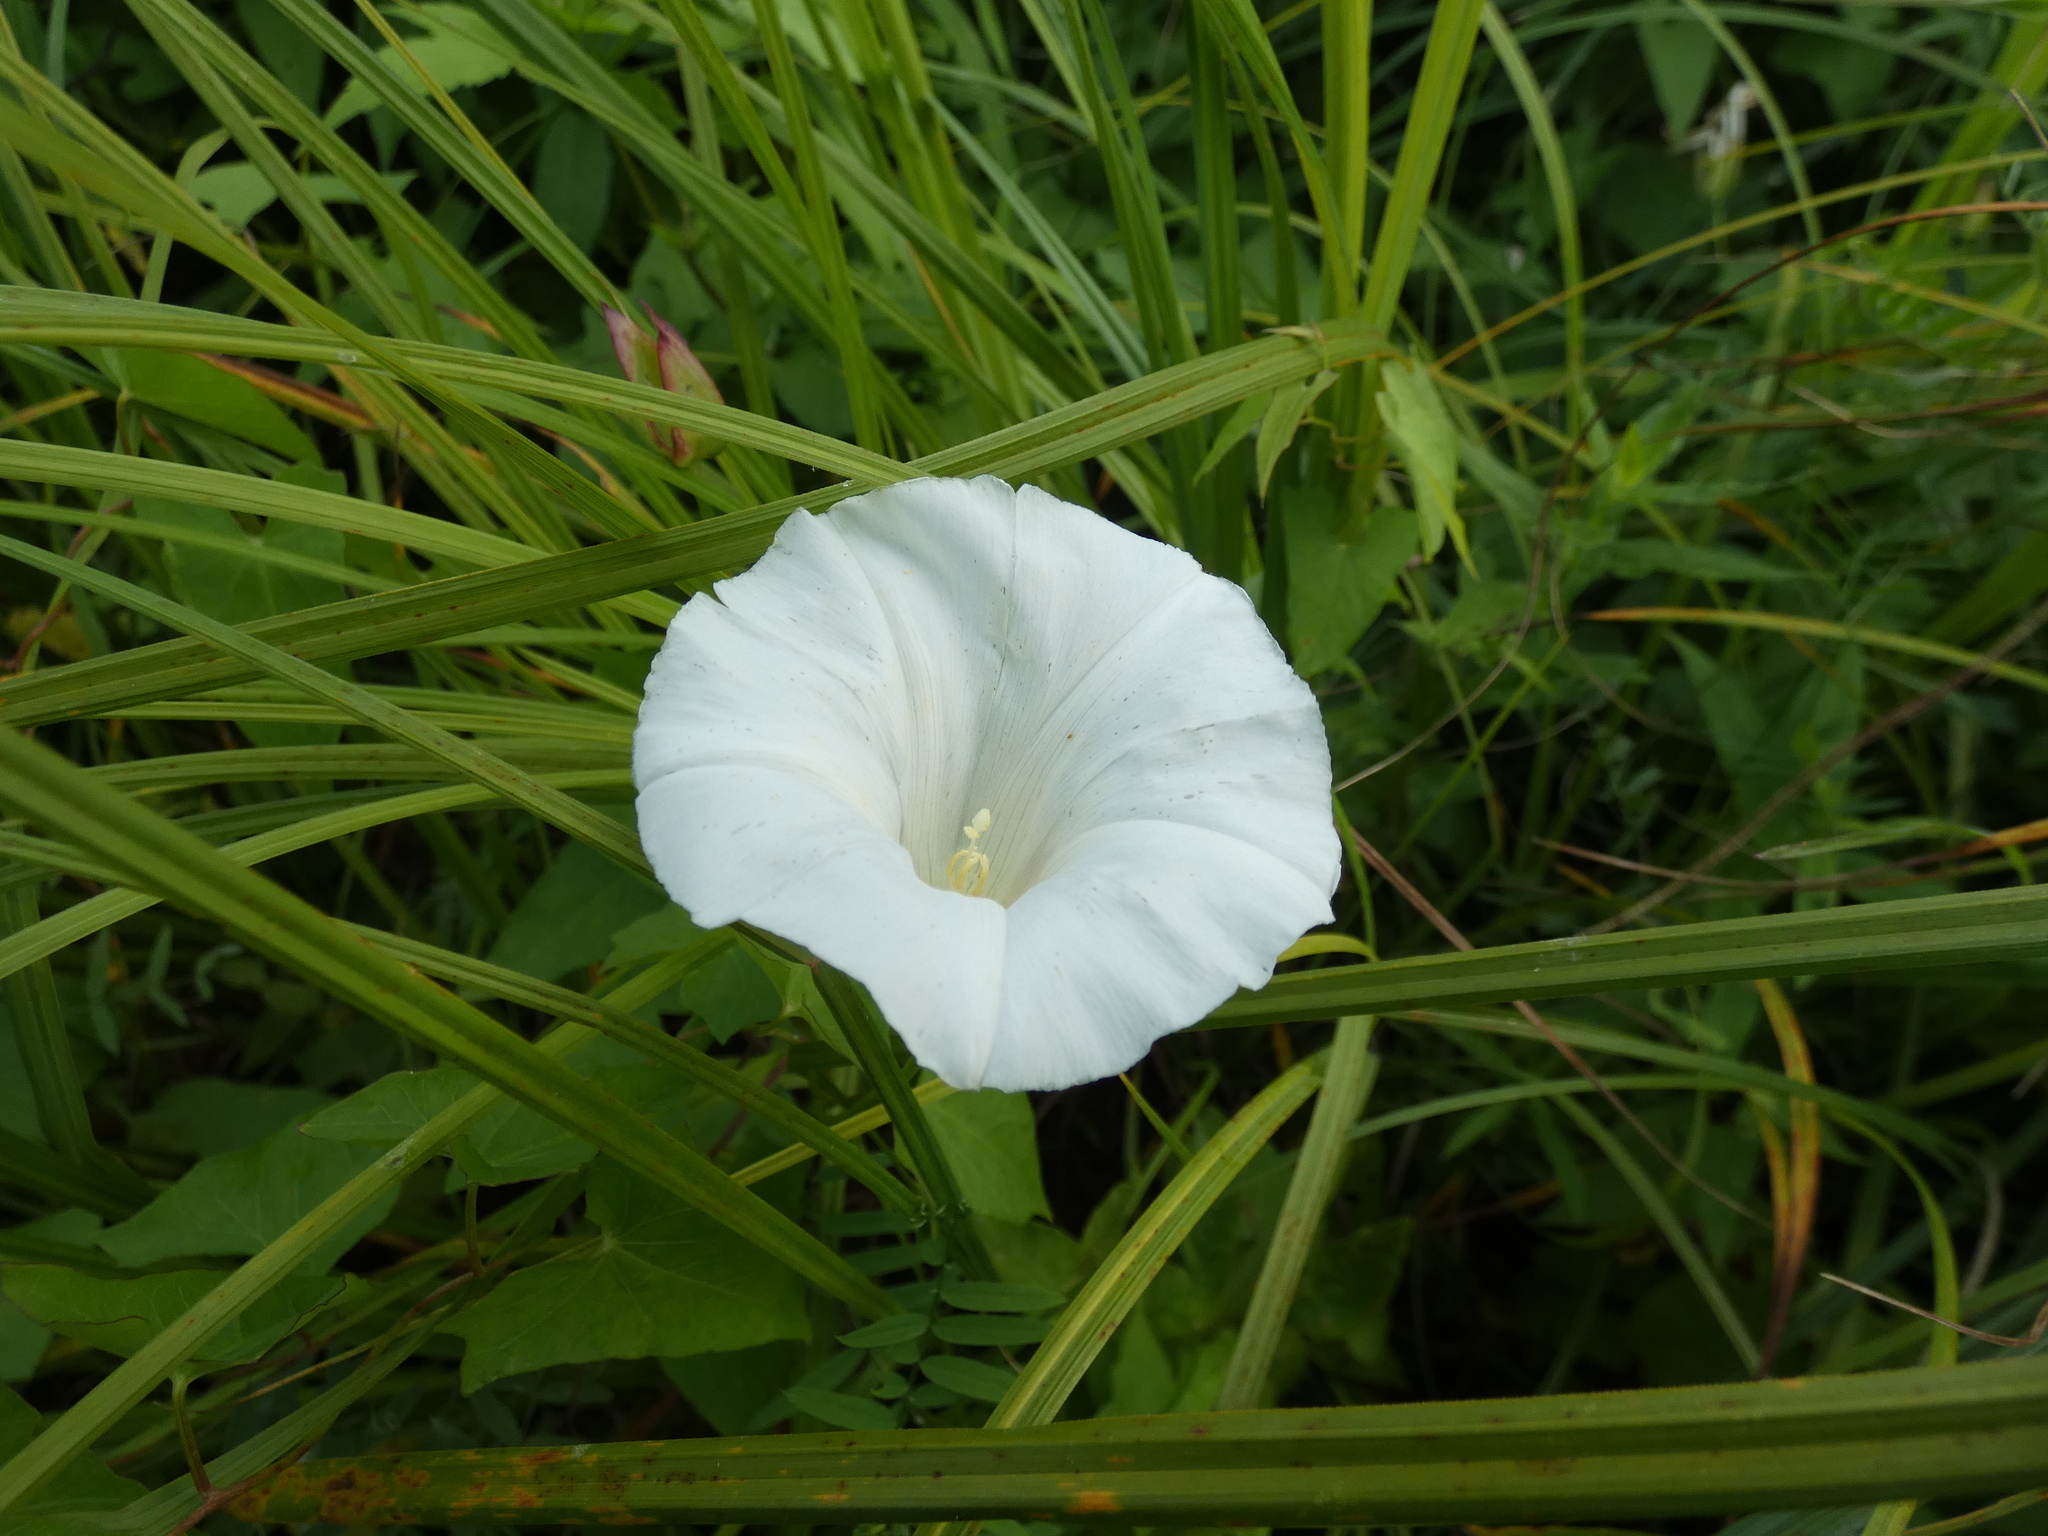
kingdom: Plantae
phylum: Tracheophyta
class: Magnoliopsida
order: Solanales
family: Convolvulaceae
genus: Calystegia
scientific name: Calystegia sepium
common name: Hedge bindweed
